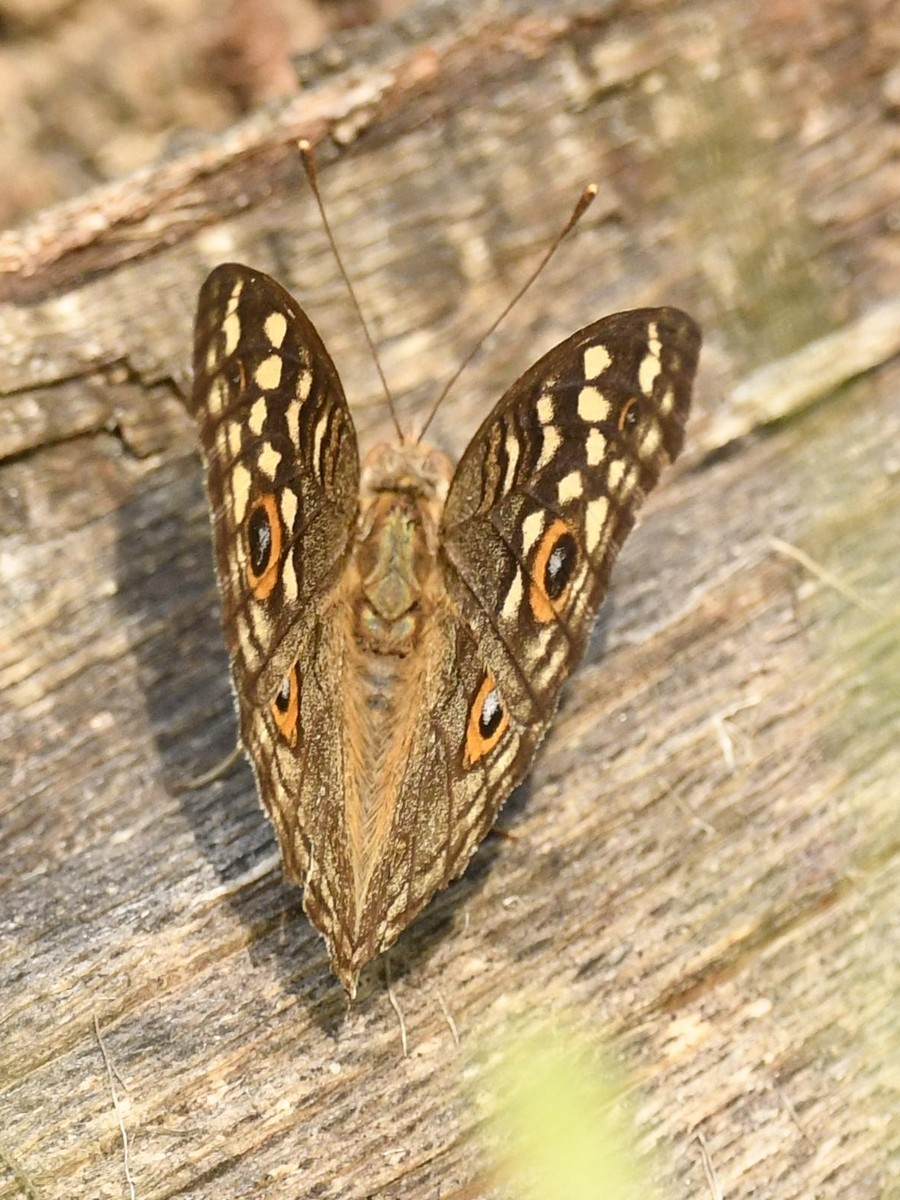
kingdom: Animalia
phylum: Arthropoda
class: Insecta
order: Lepidoptera
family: Nymphalidae
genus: Junonia
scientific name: Junonia lemonias
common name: Lemon pansy
